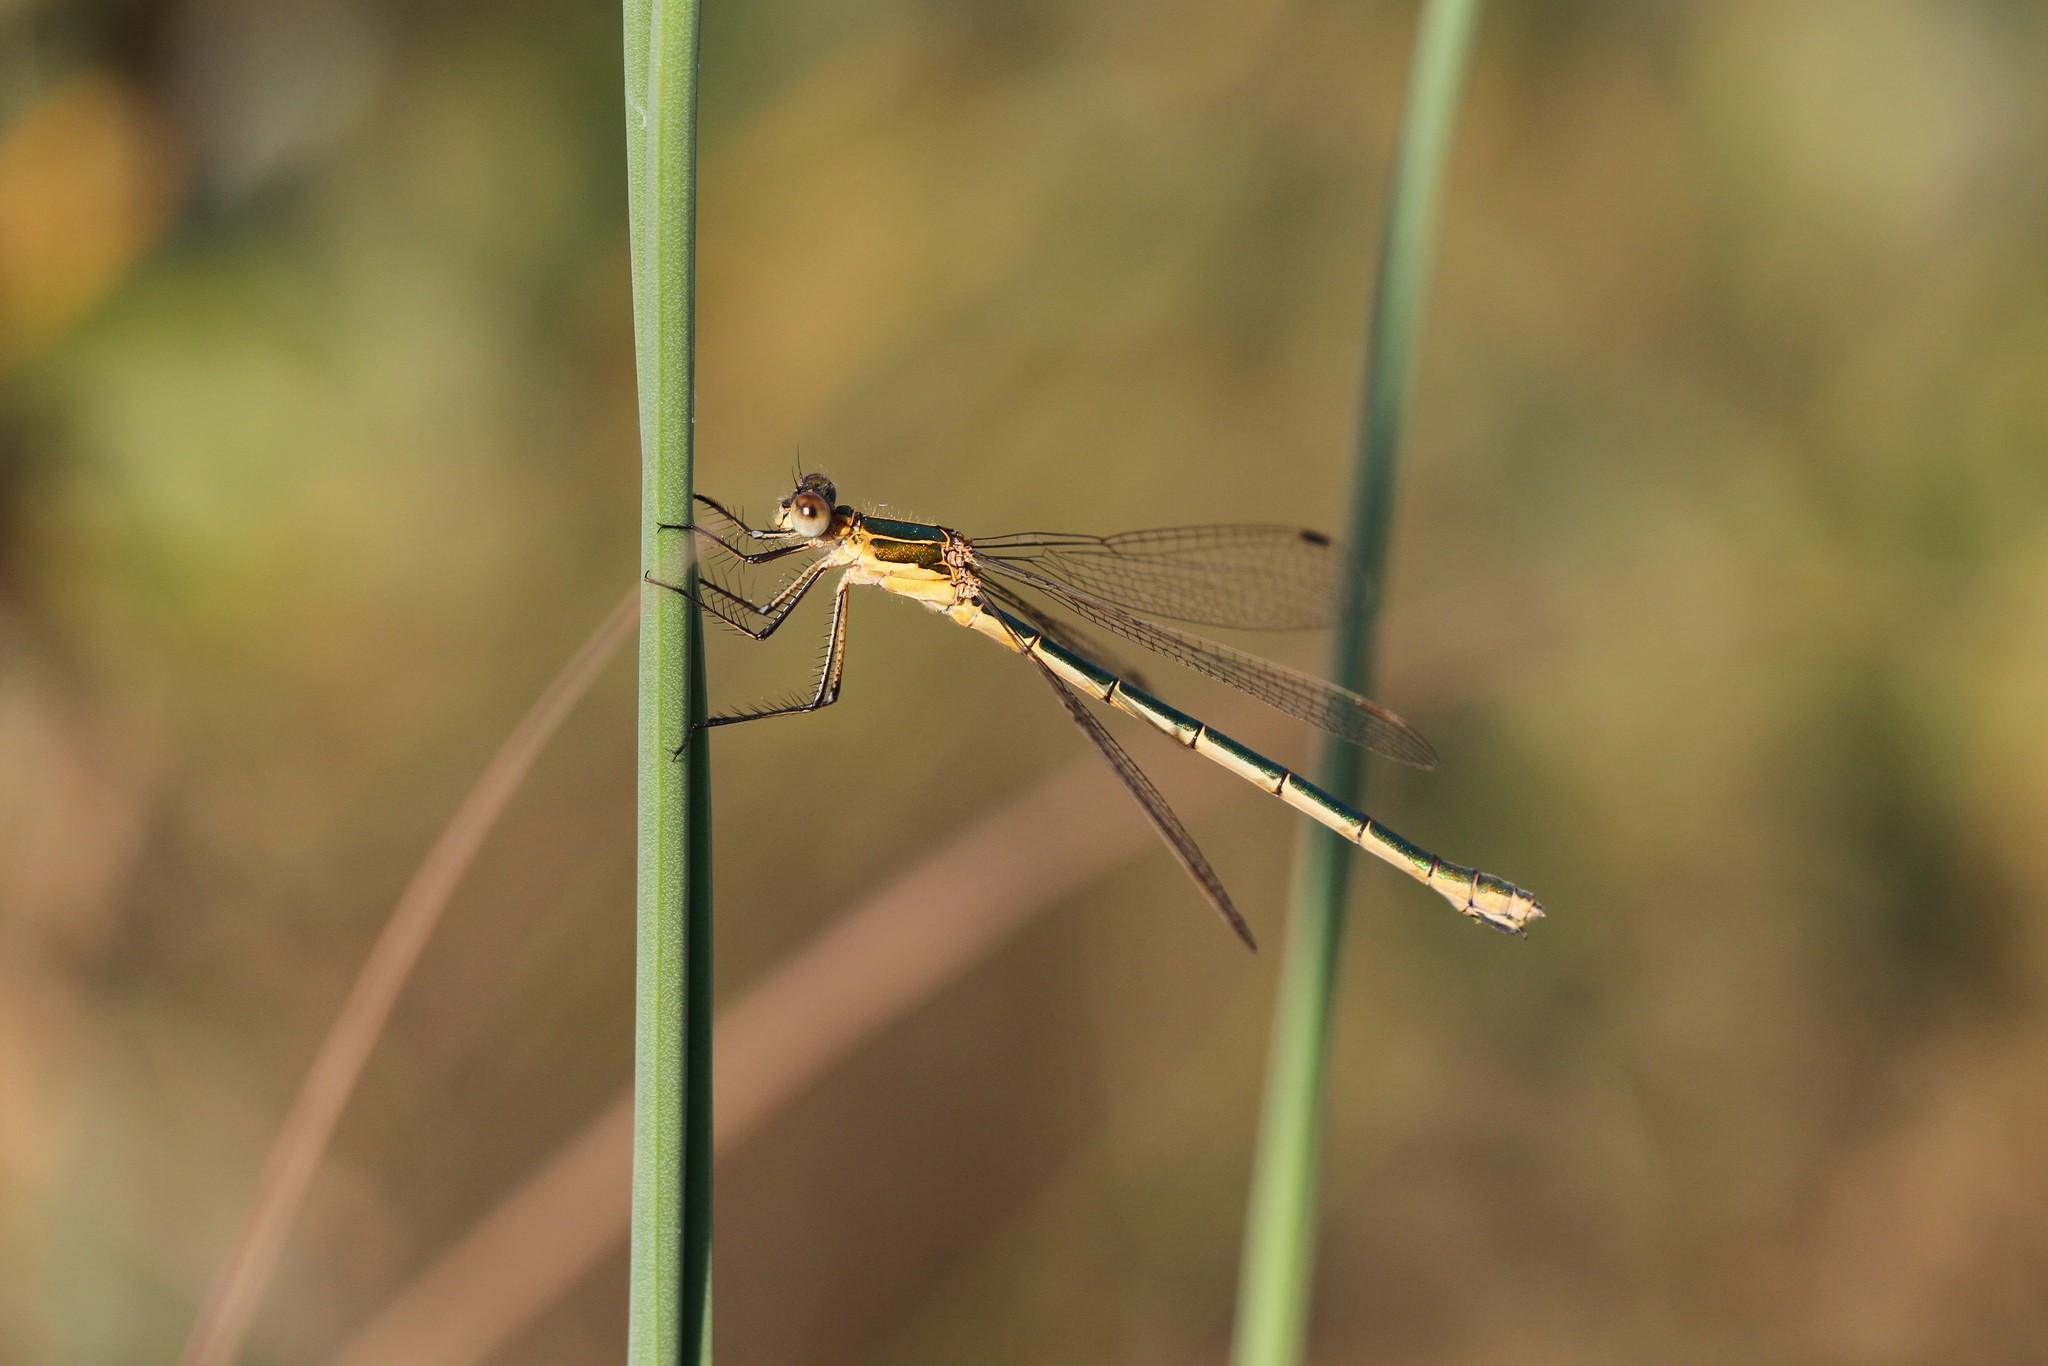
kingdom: Animalia
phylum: Arthropoda
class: Insecta
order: Odonata
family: Lestidae
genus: Lestes
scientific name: Lestes sponsa
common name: Common spreadwing
